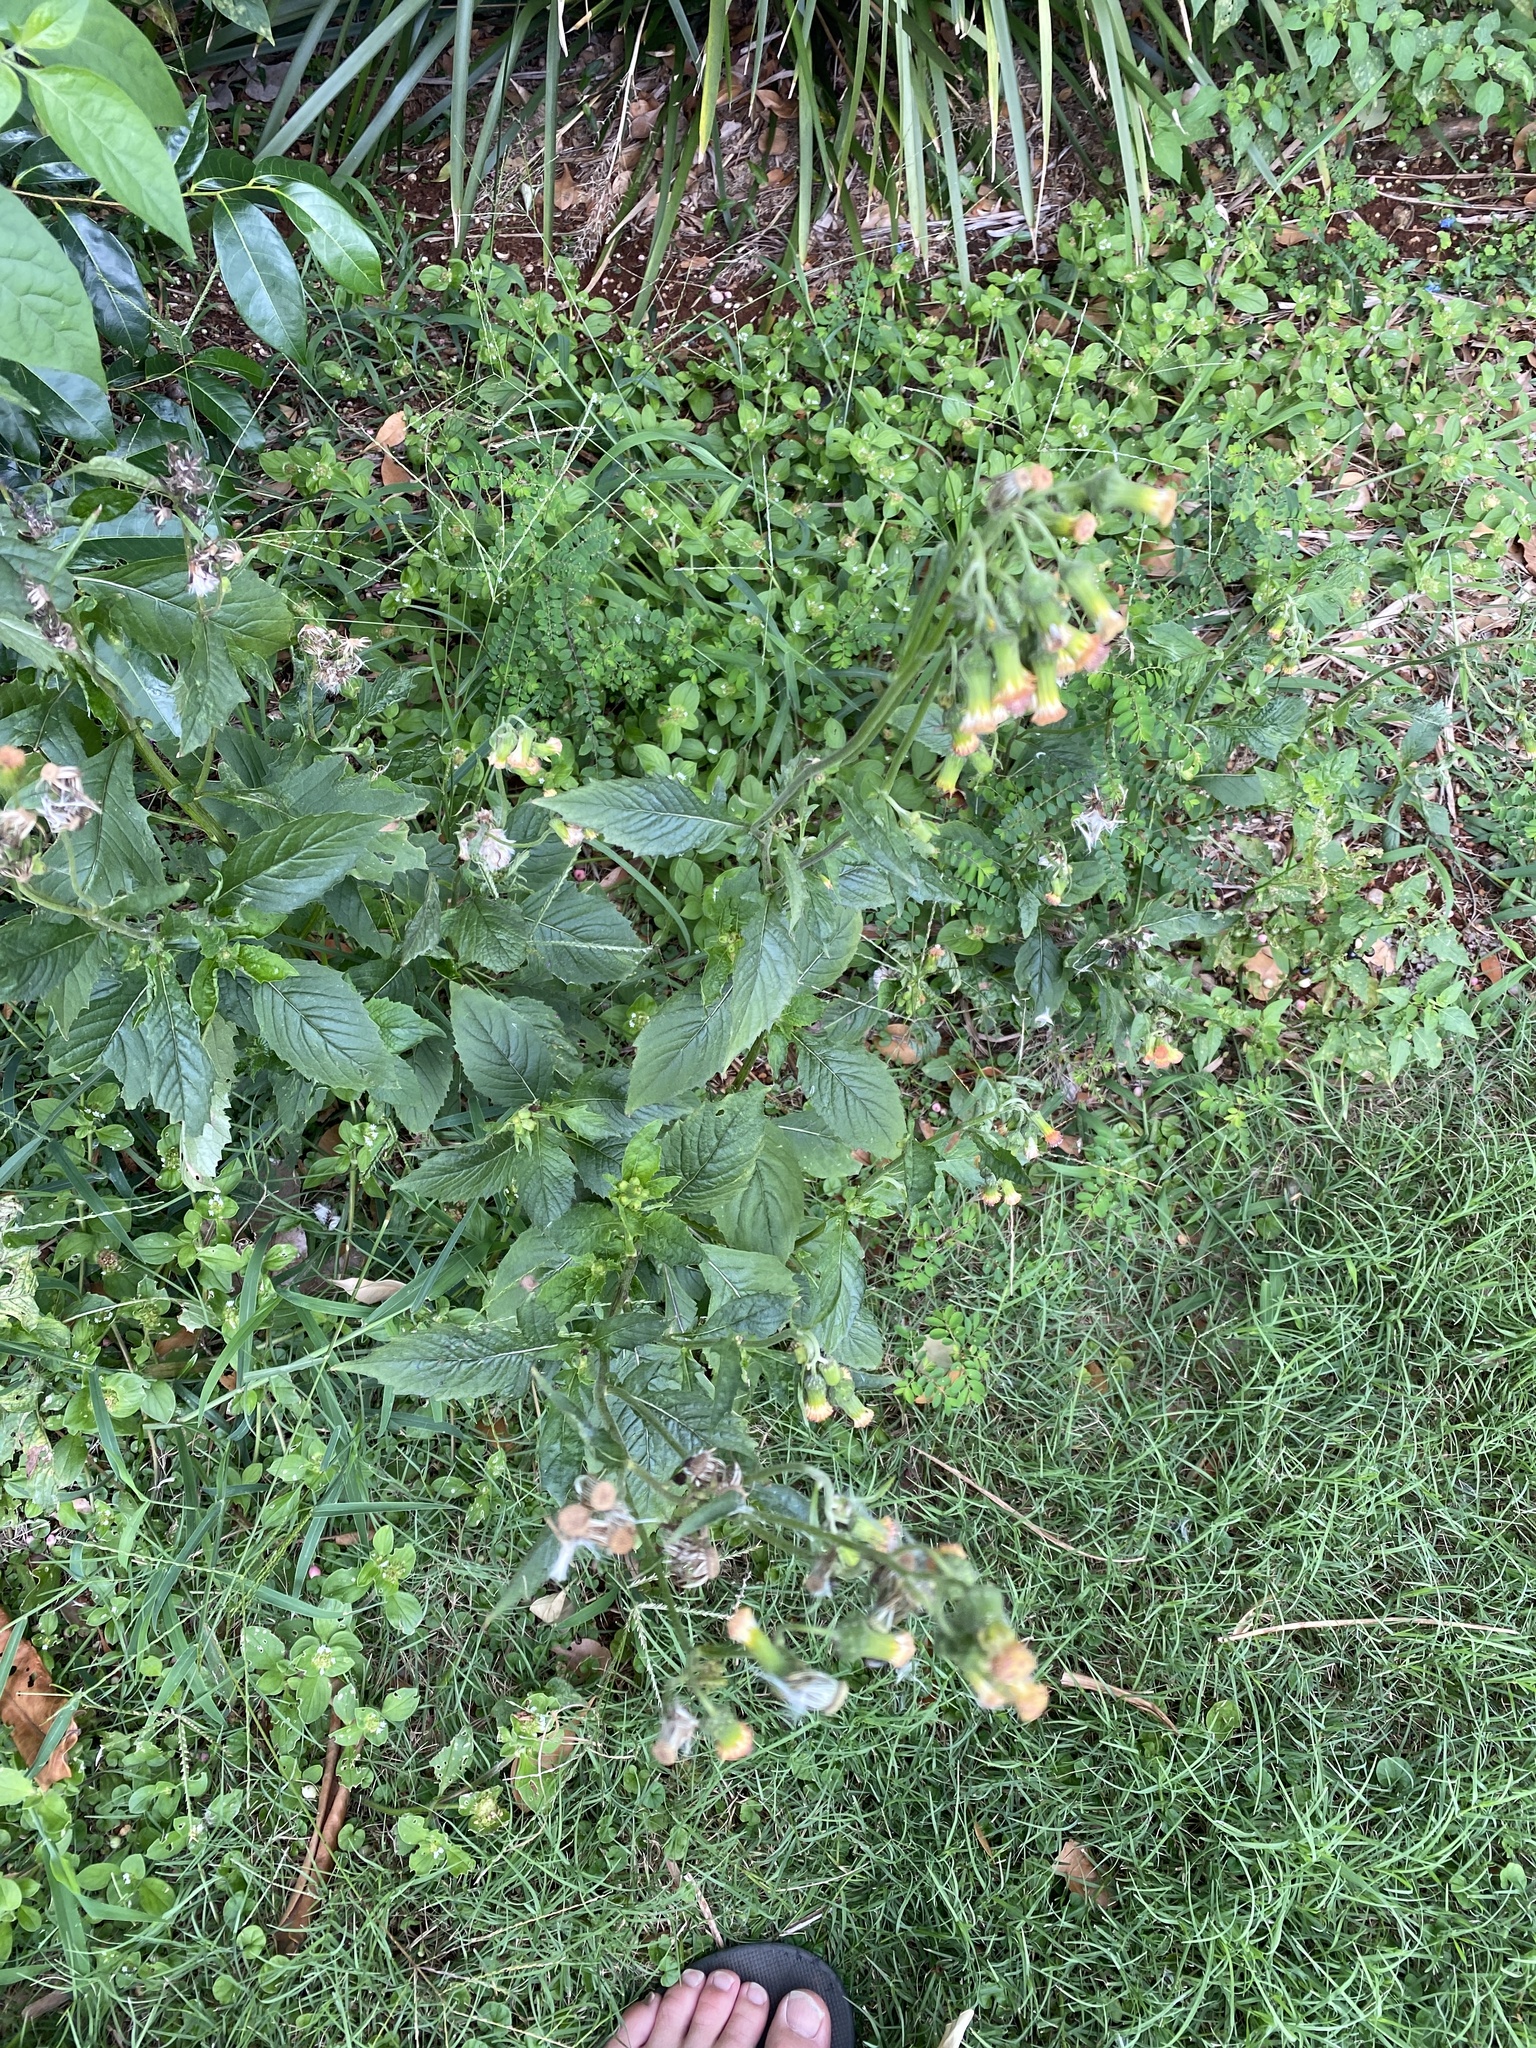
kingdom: Plantae
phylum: Tracheophyta
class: Magnoliopsida
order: Asterales
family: Asteraceae
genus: Crassocephalum
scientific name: Crassocephalum crepidioides
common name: Redflower ragleaf
